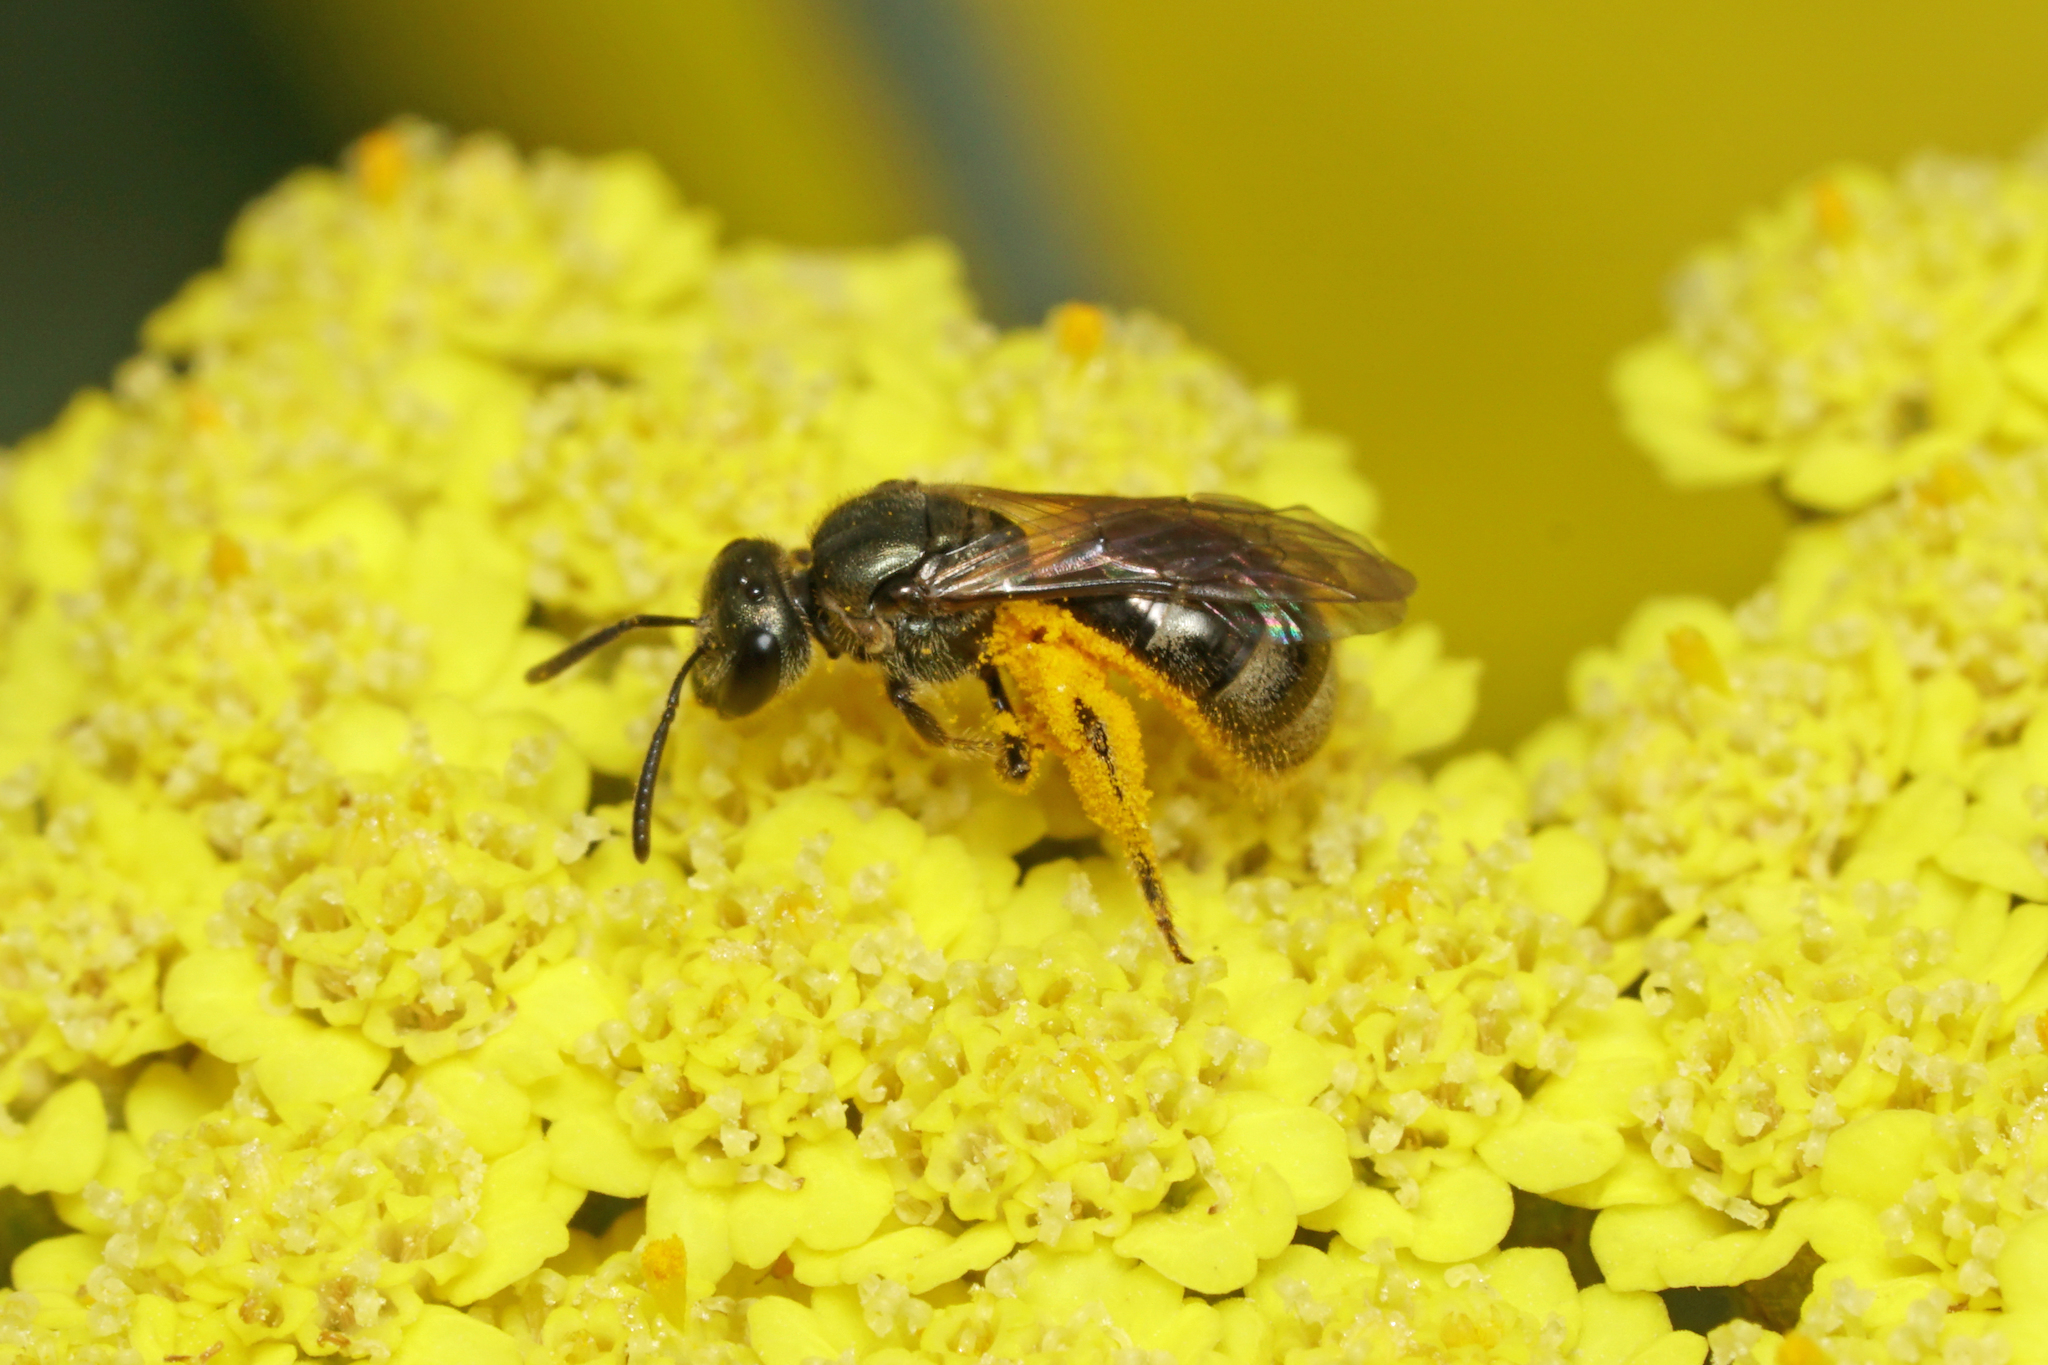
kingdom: Animalia
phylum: Arthropoda
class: Insecta
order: Hymenoptera
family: Halictidae
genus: Dialictus
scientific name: Dialictus
